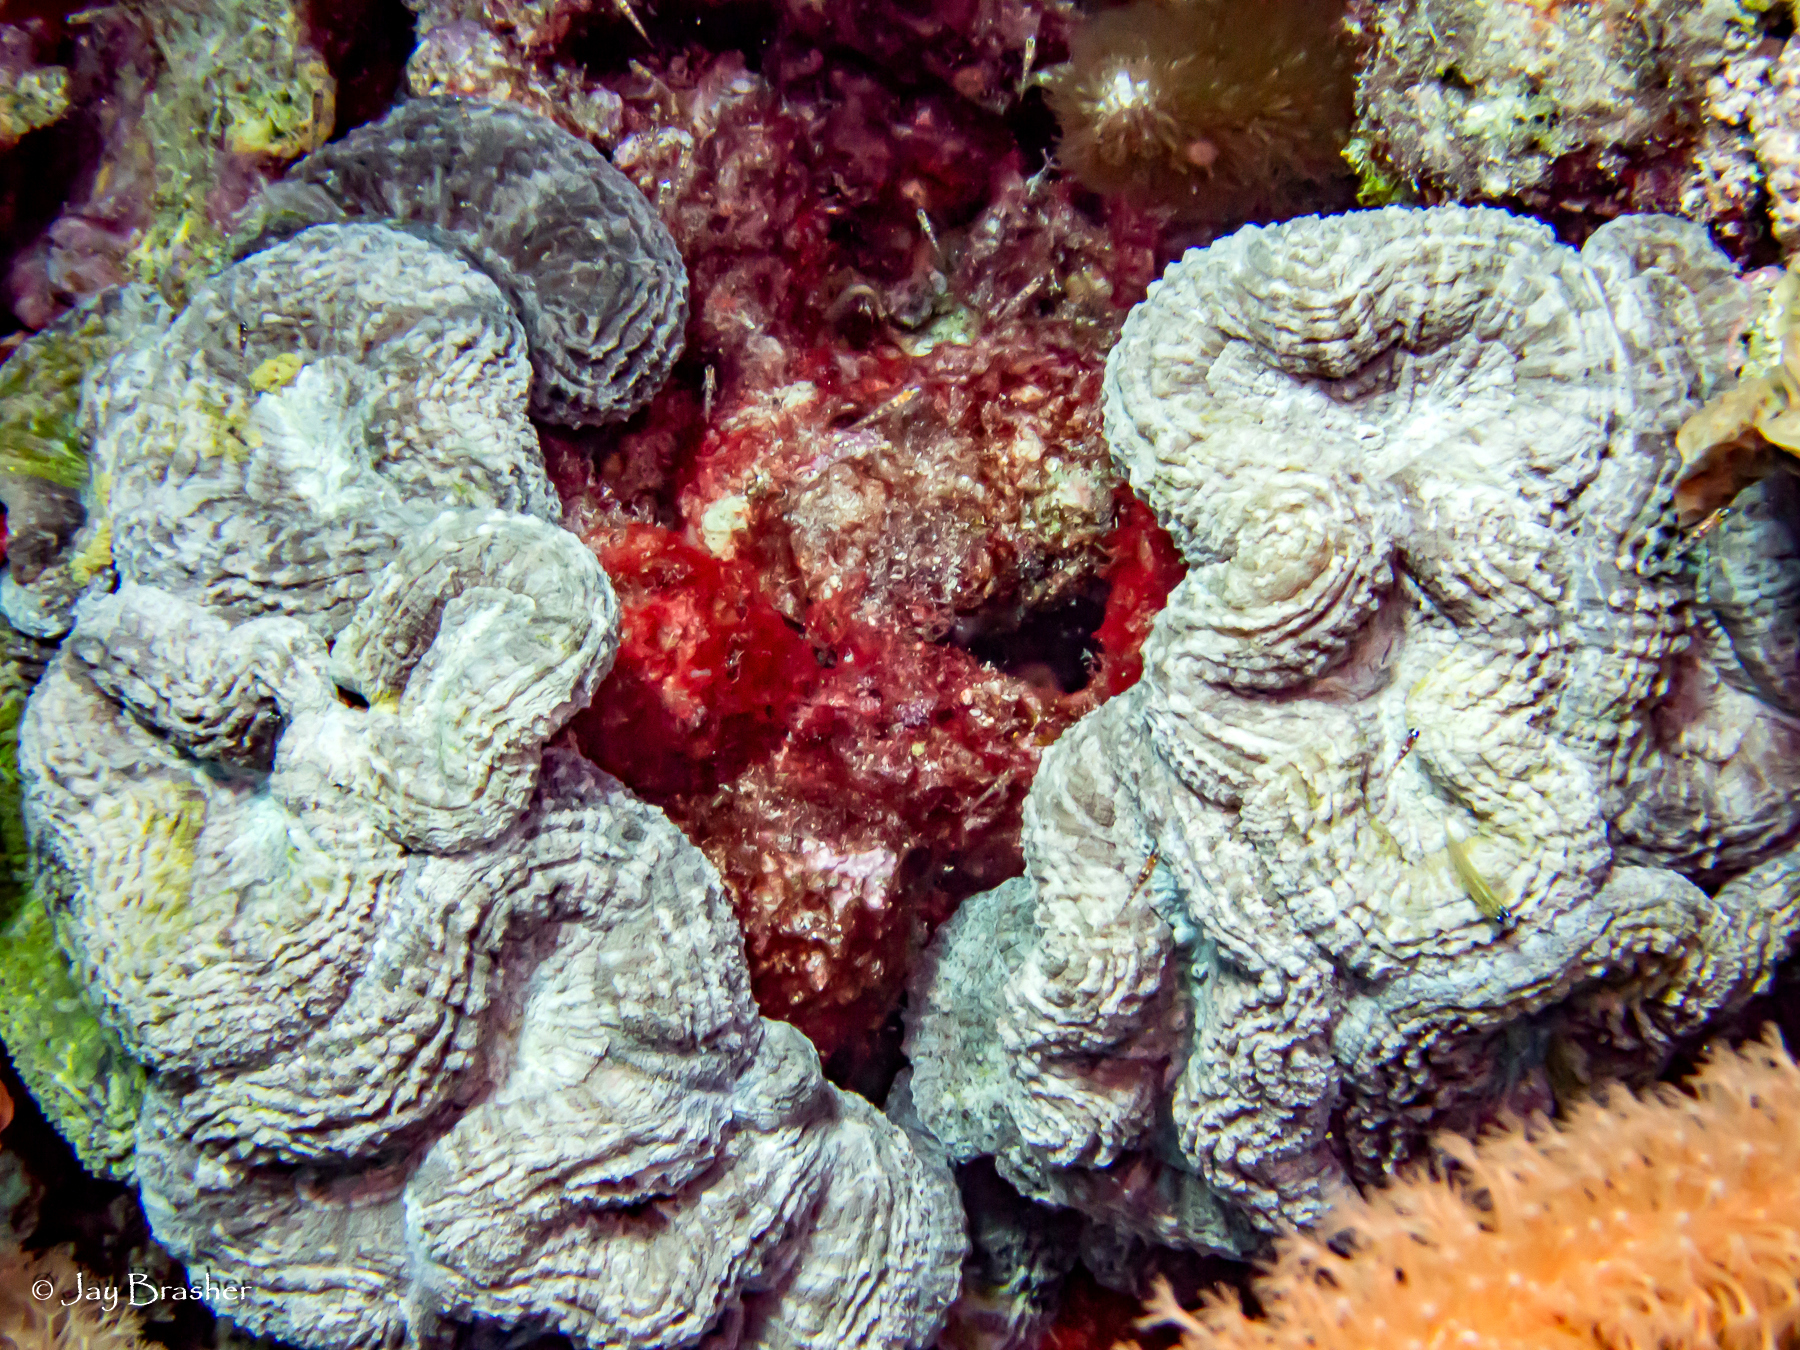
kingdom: Animalia
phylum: Cnidaria
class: Anthozoa
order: Scleractinia
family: Faviidae
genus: Mussa
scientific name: Mussa angulosa
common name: Spiny flower coral
